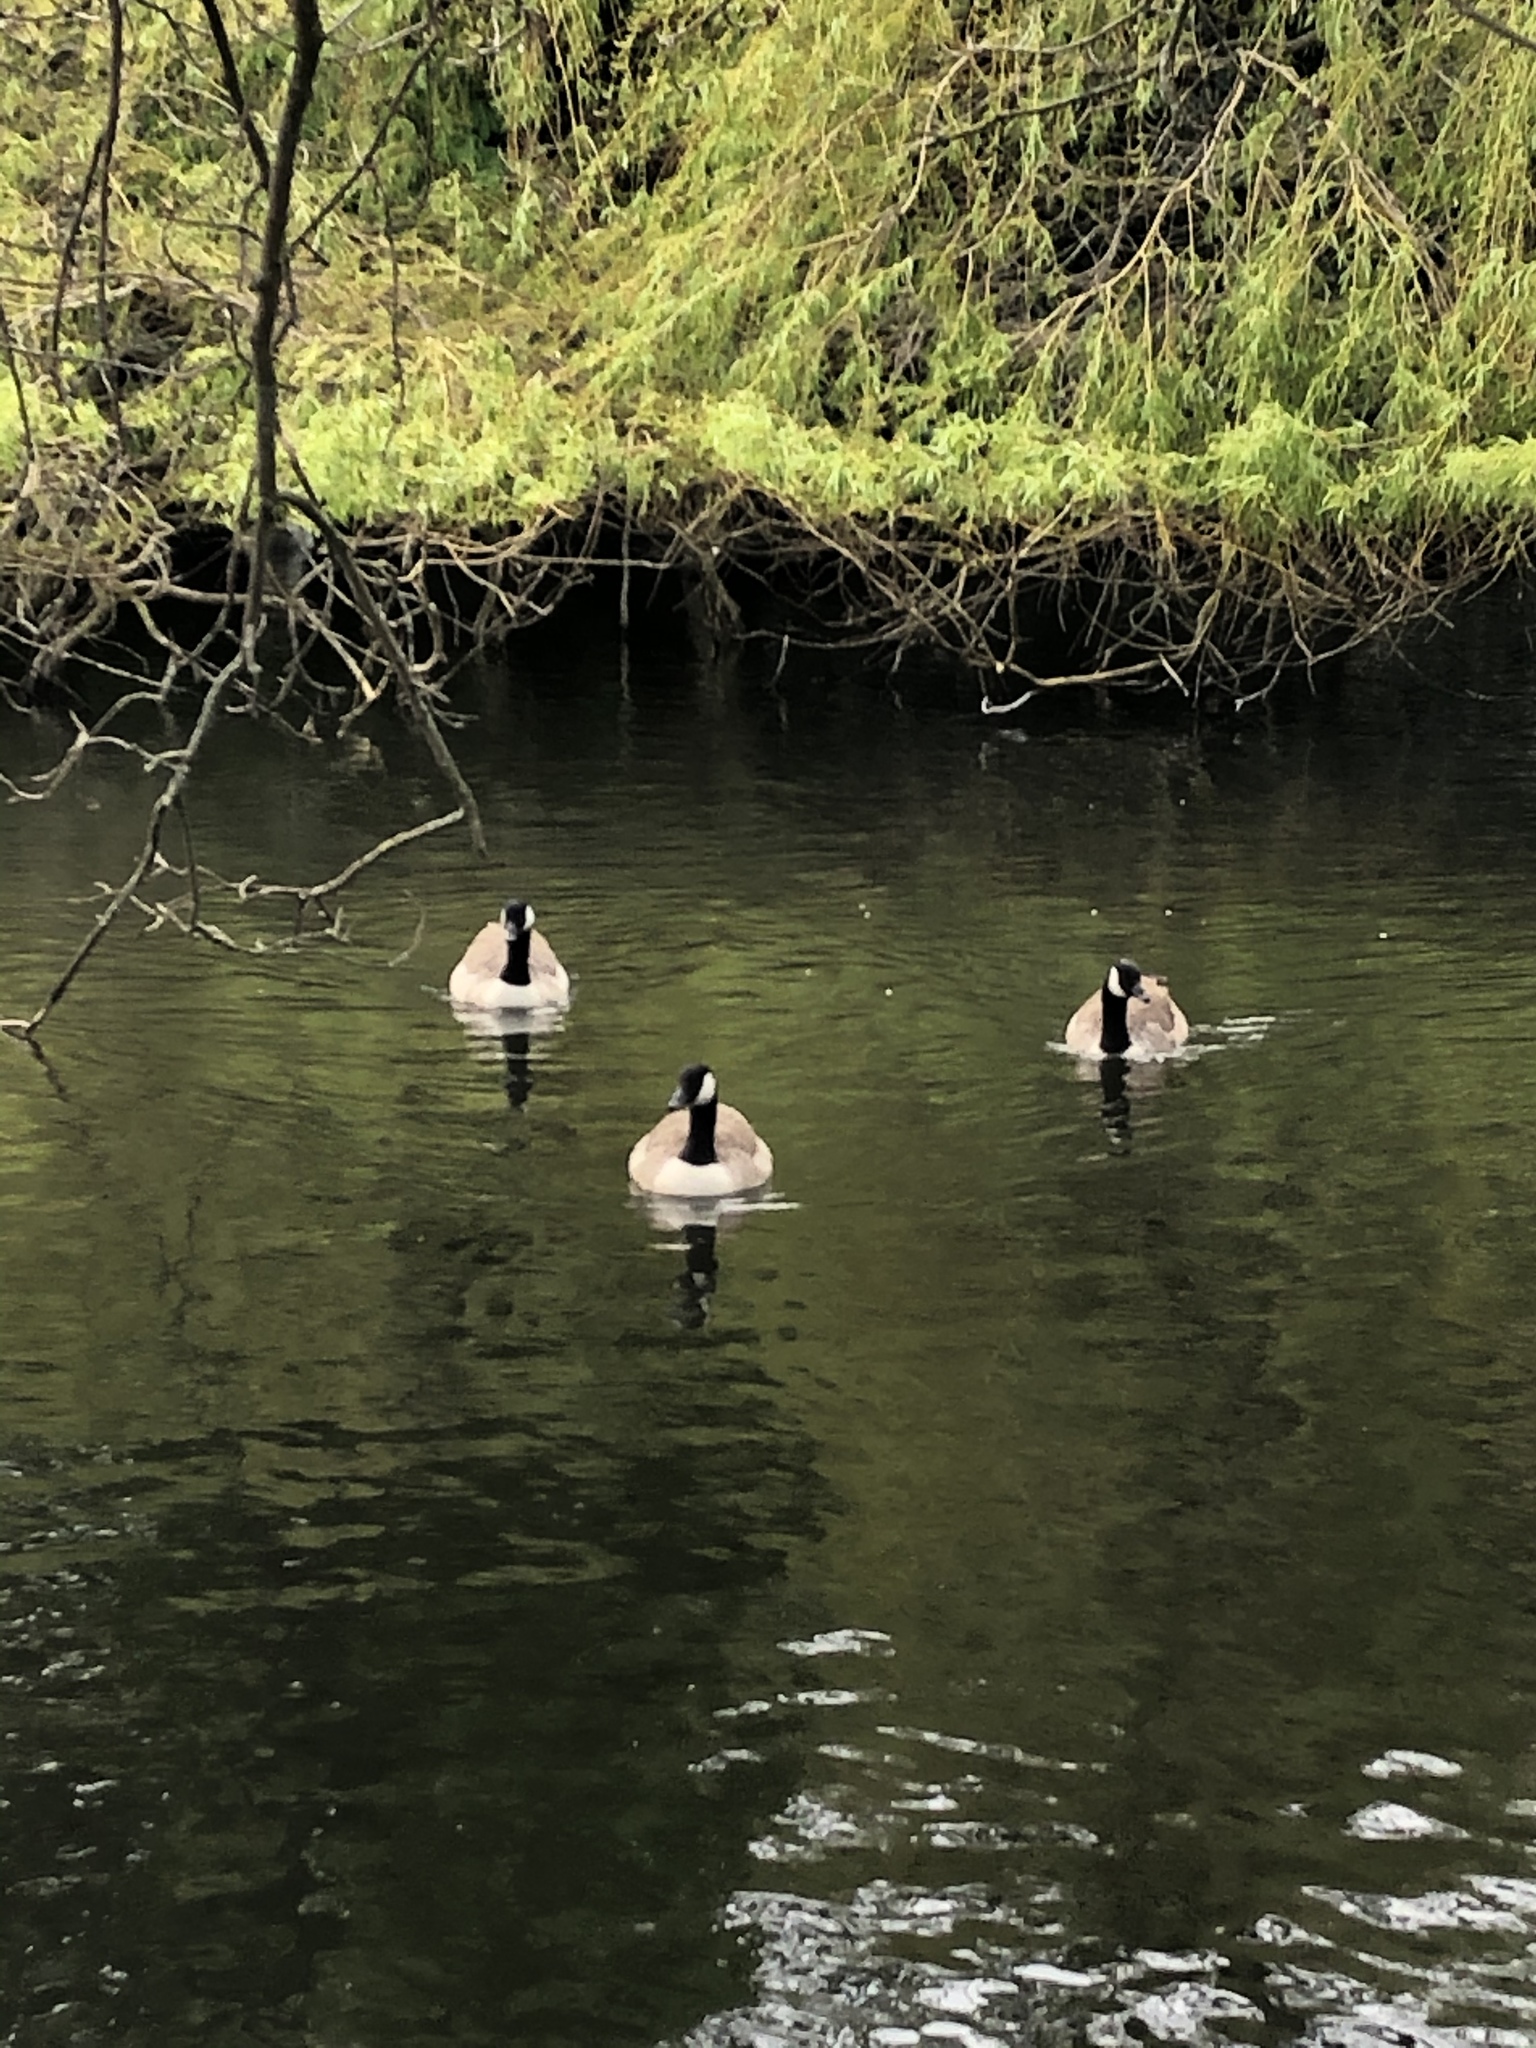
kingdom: Animalia
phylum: Chordata
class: Aves
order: Anseriformes
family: Anatidae
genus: Branta
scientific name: Branta canadensis
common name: Canada goose
